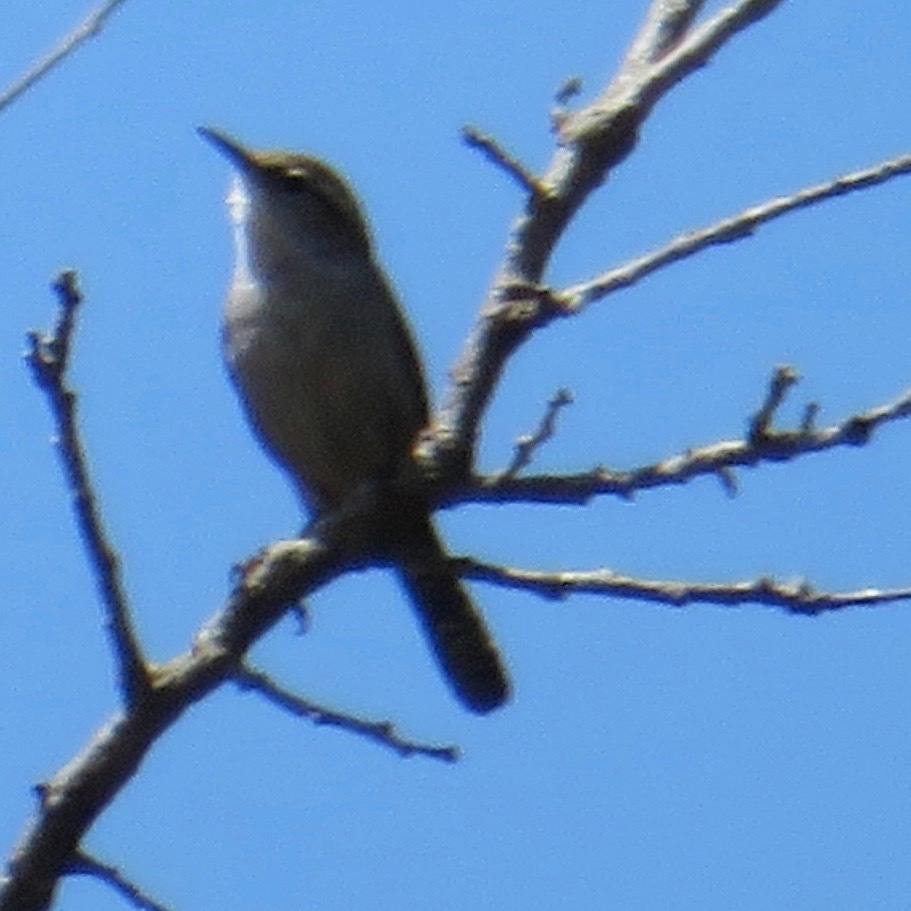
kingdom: Animalia
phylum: Chordata
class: Aves
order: Passeriformes
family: Troglodytidae
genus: Thryomanes
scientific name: Thryomanes bewickii
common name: Bewick's wren
